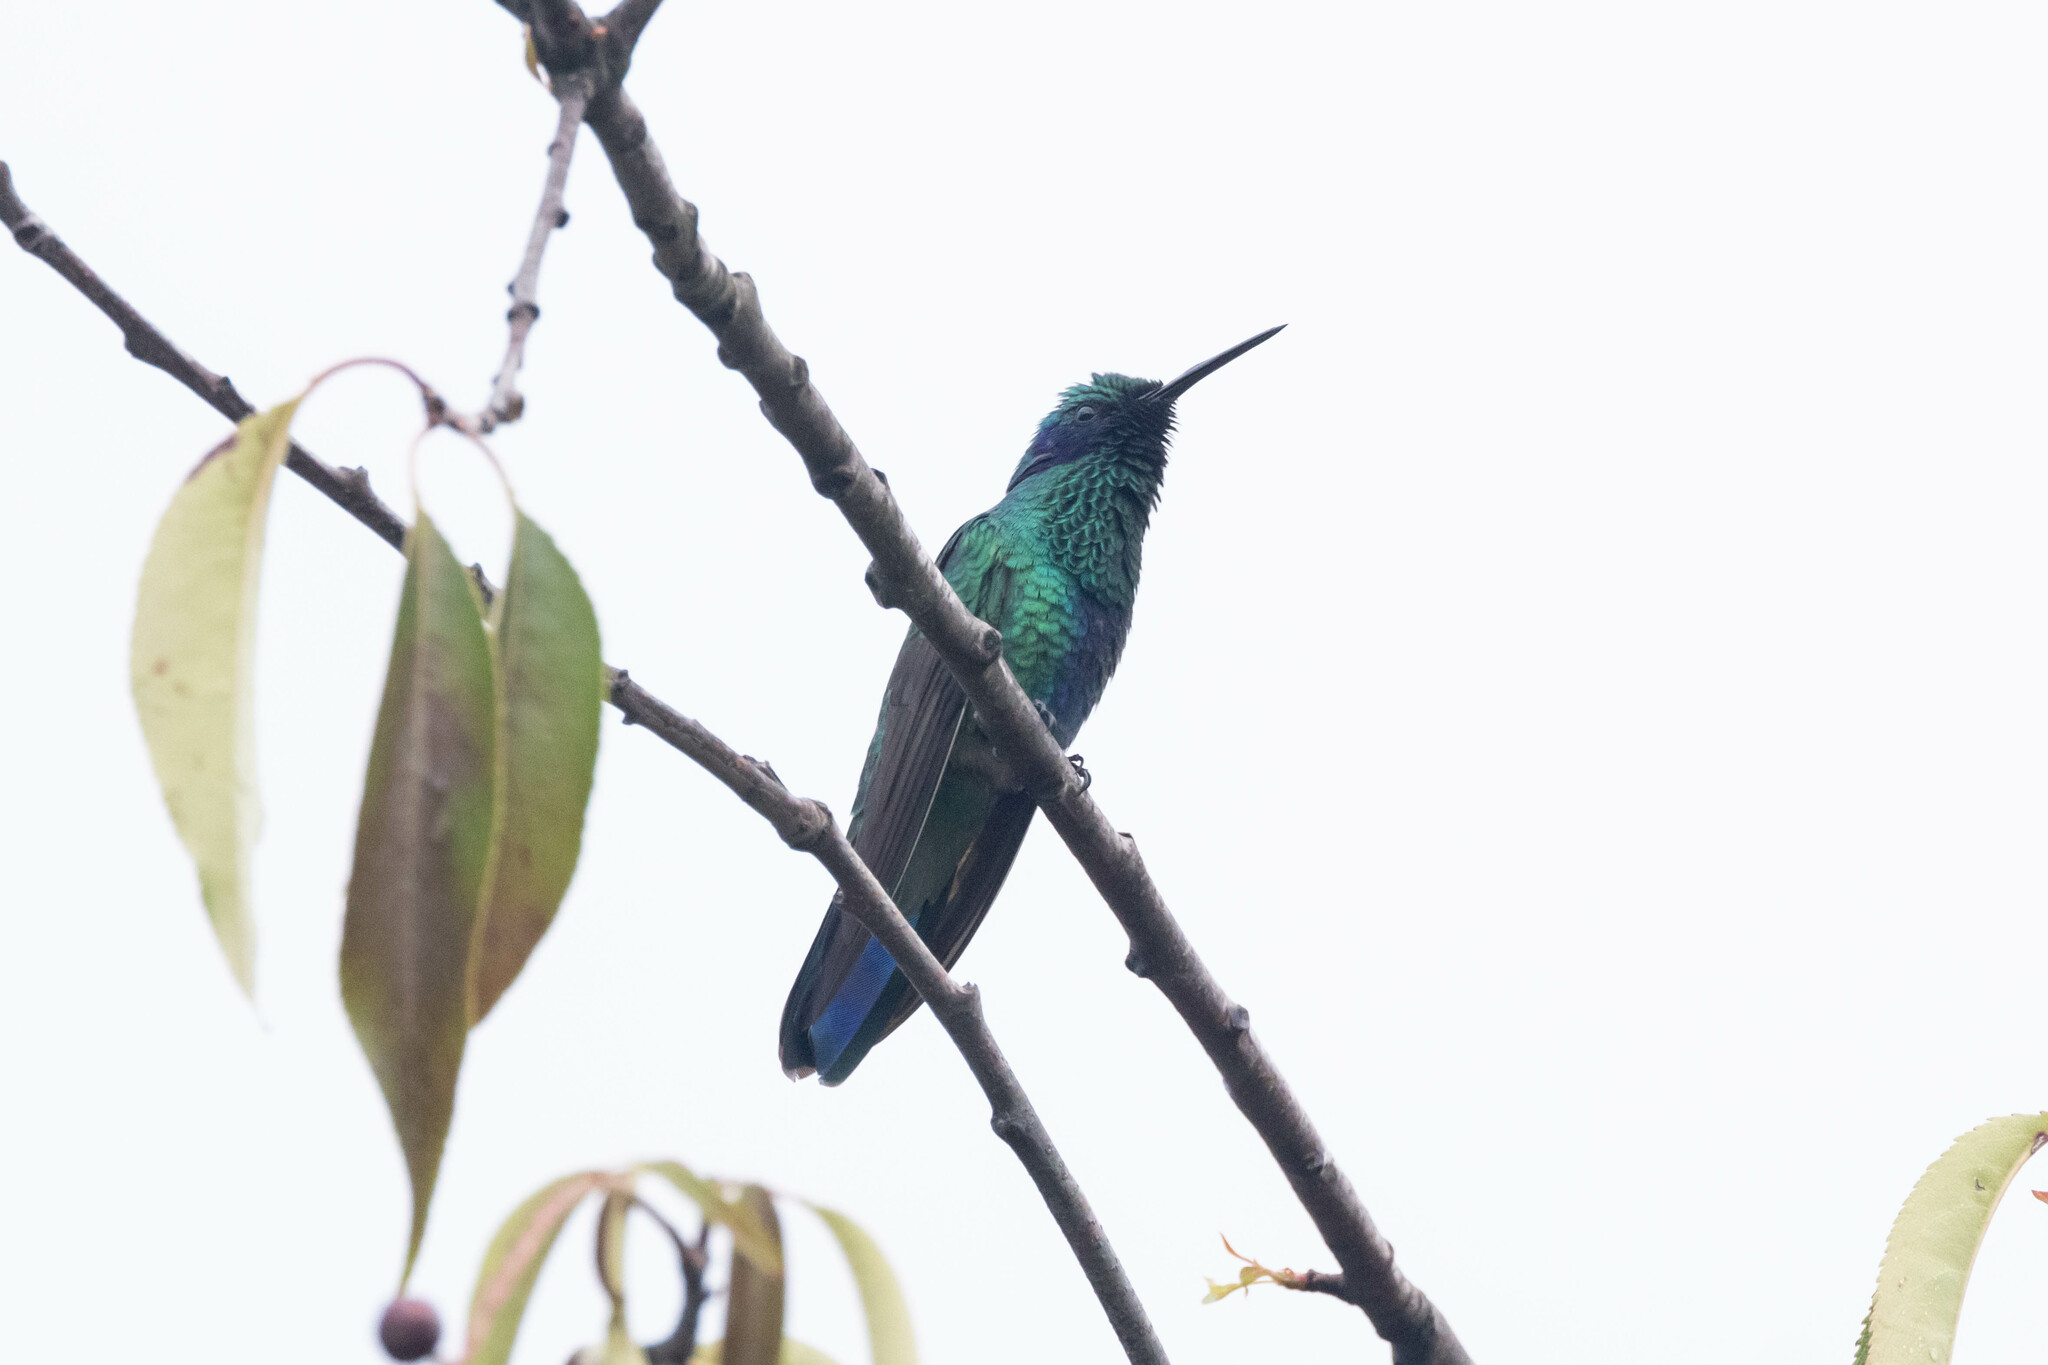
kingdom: Animalia
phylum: Chordata
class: Aves
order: Apodiformes
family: Trochilidae
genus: Colibri
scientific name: Colibri coruscans
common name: Sparkling violetear
